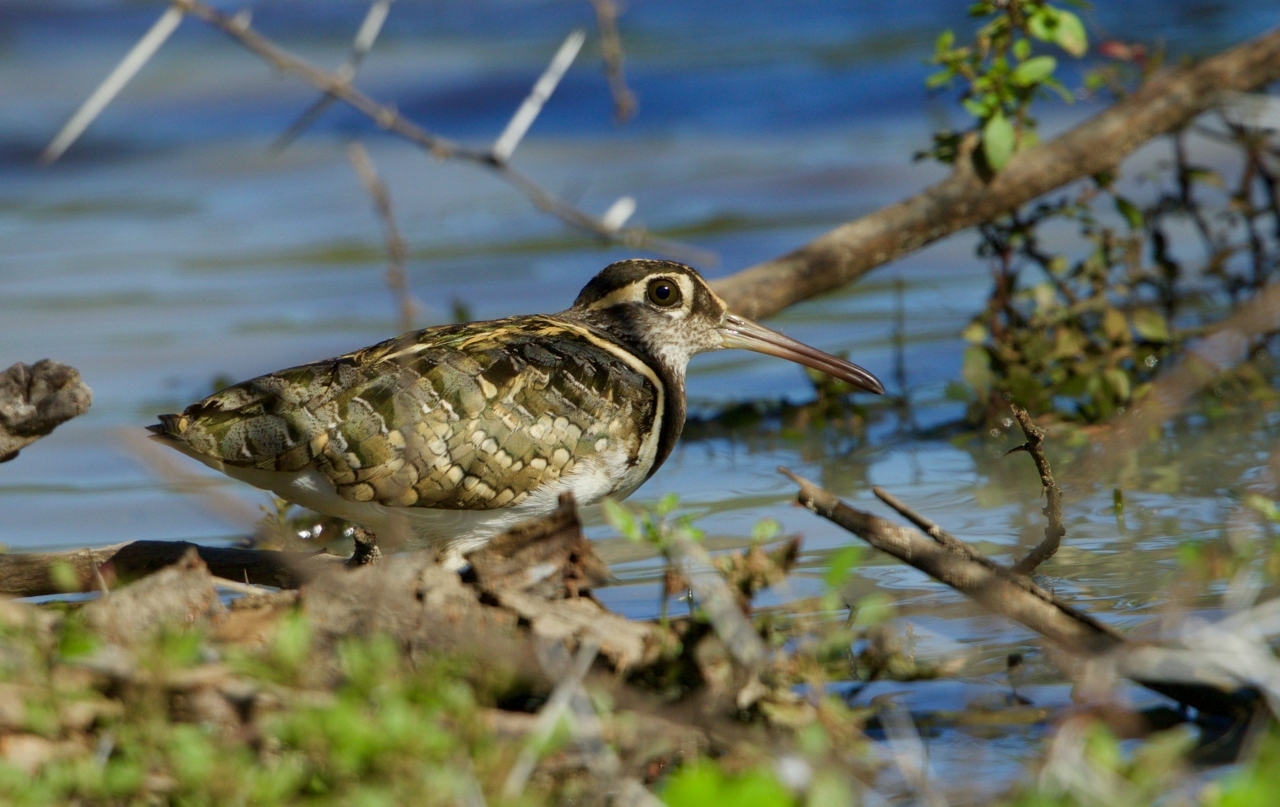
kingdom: Animalia
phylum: Chordata
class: Aves
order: Charadriiformes
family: Rostratulidae
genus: Rostratula
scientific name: Rostratula benghalensis
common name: Greater painted-snipe
